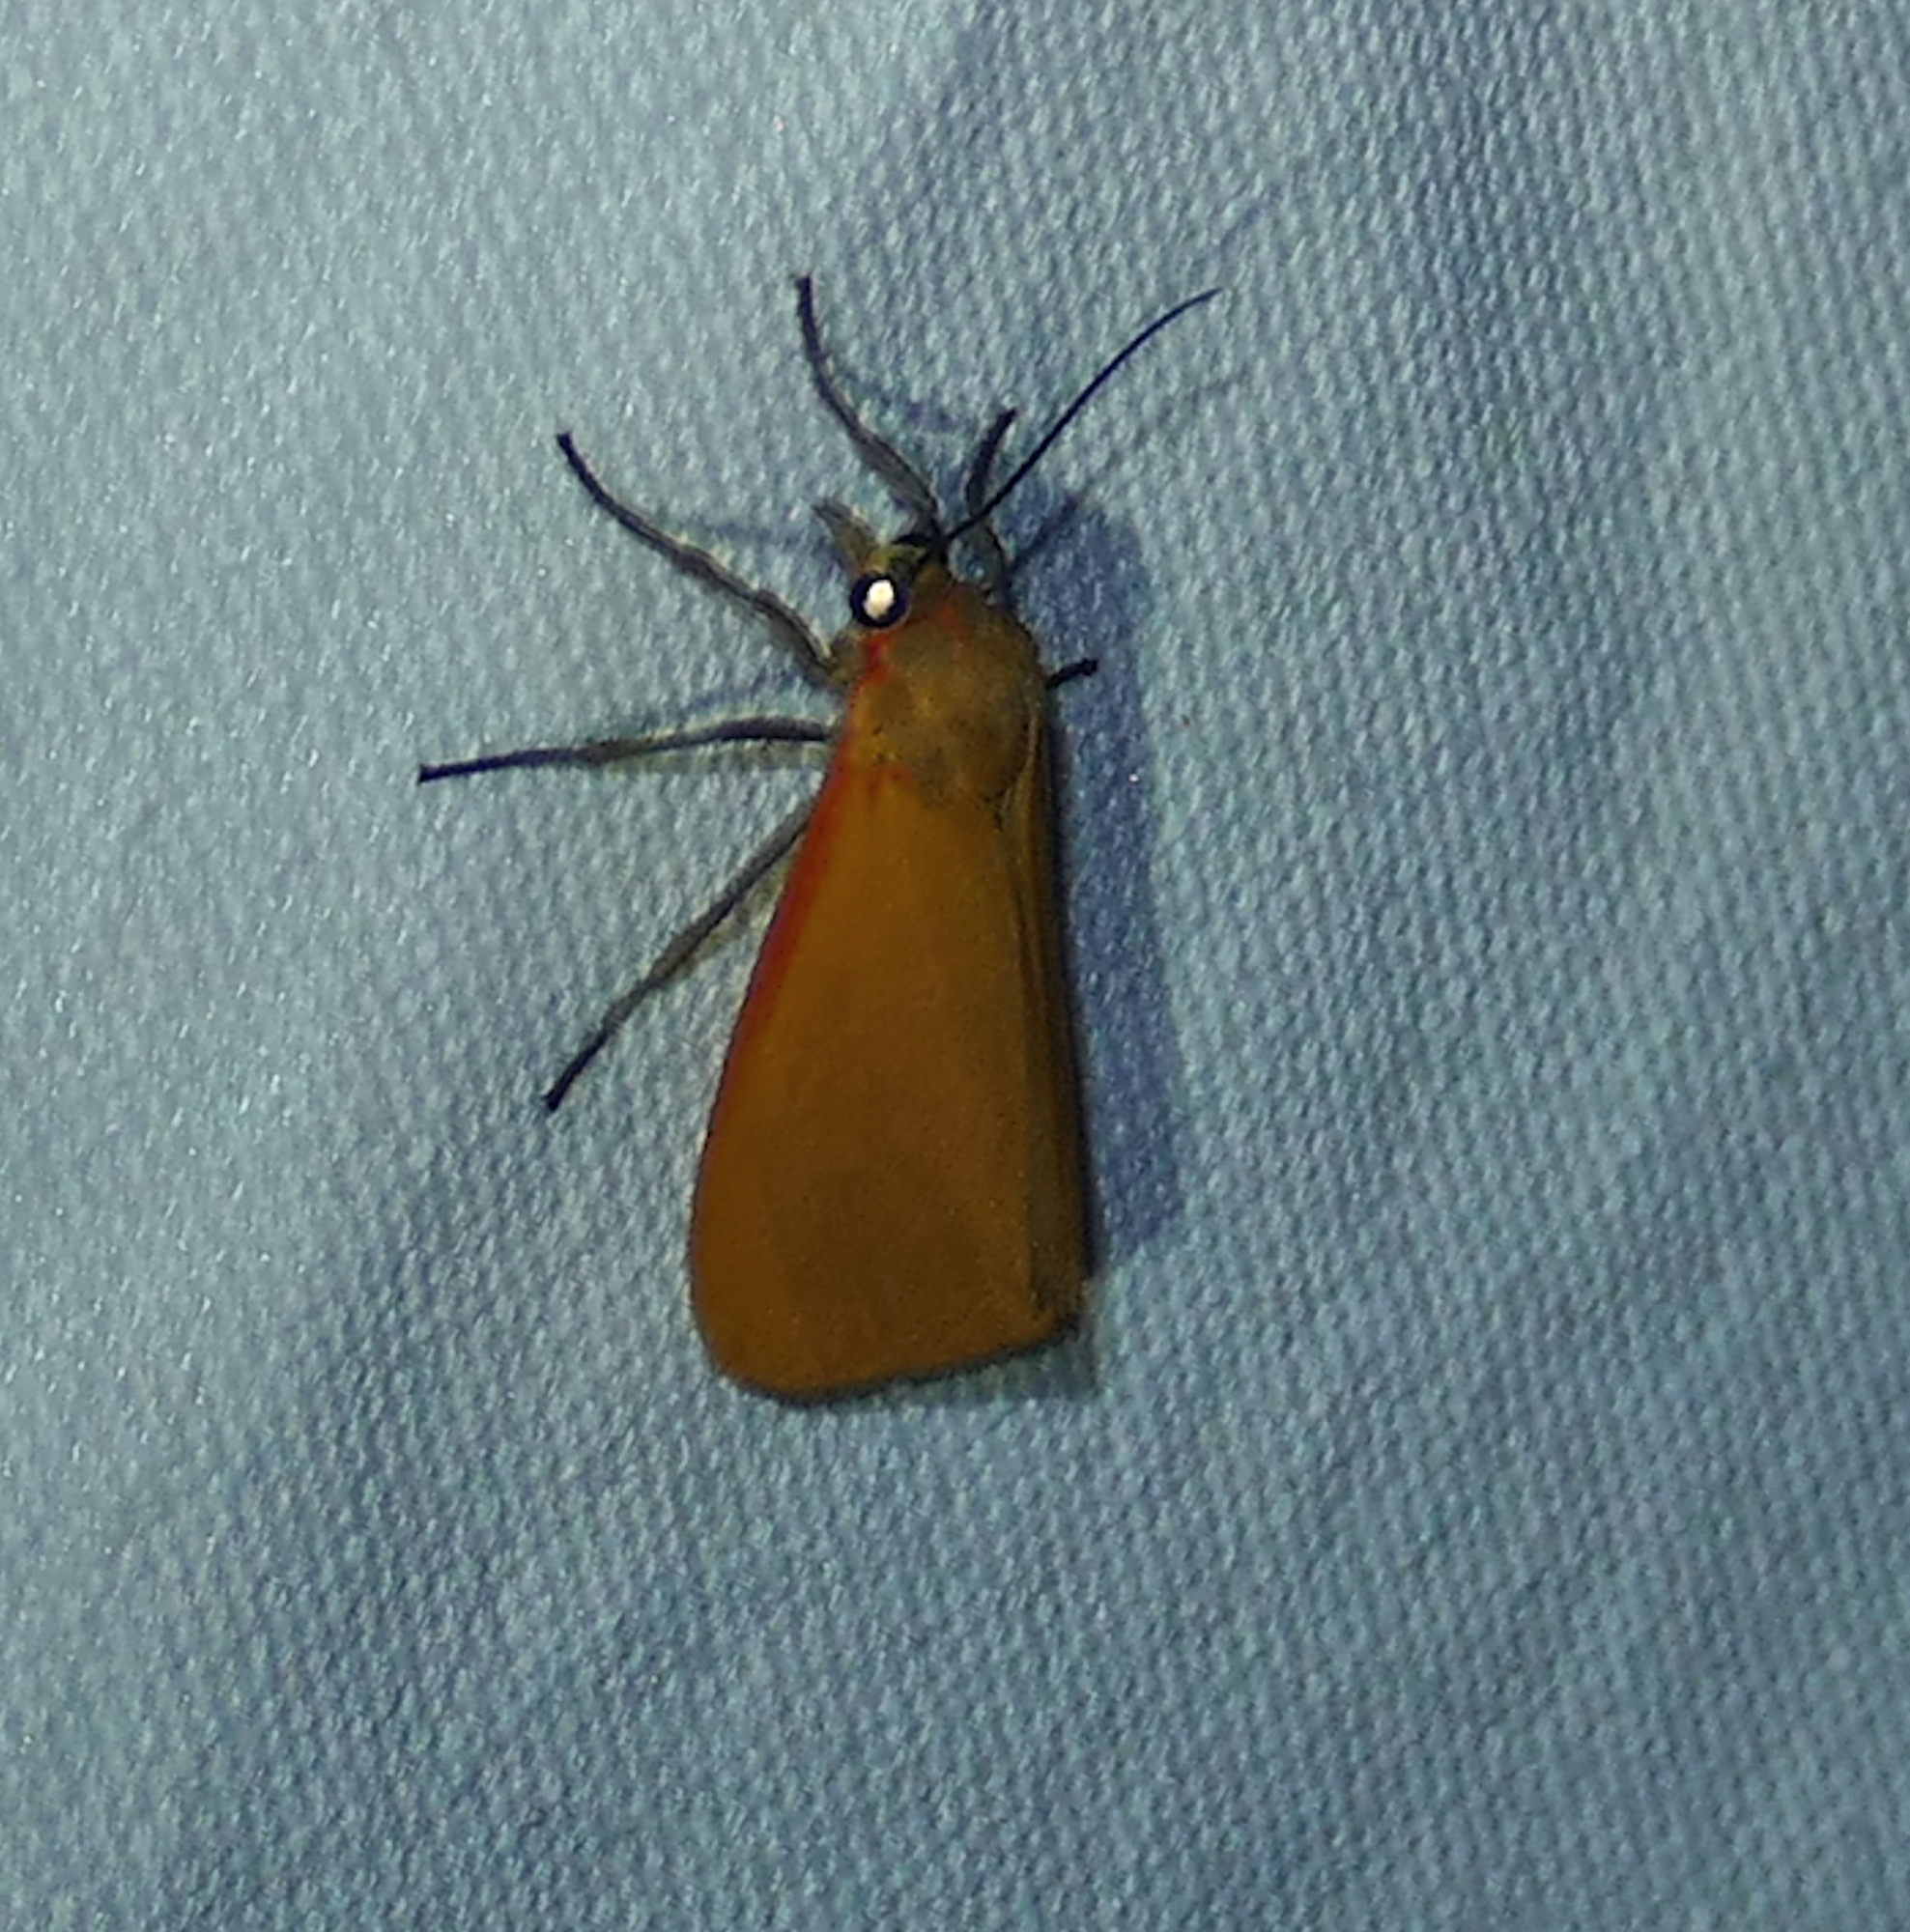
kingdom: Animalia
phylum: Arthropoda
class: Insecta
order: Lepidoptera
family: Erebidae
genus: Virbia
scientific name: Virbia ostenta
